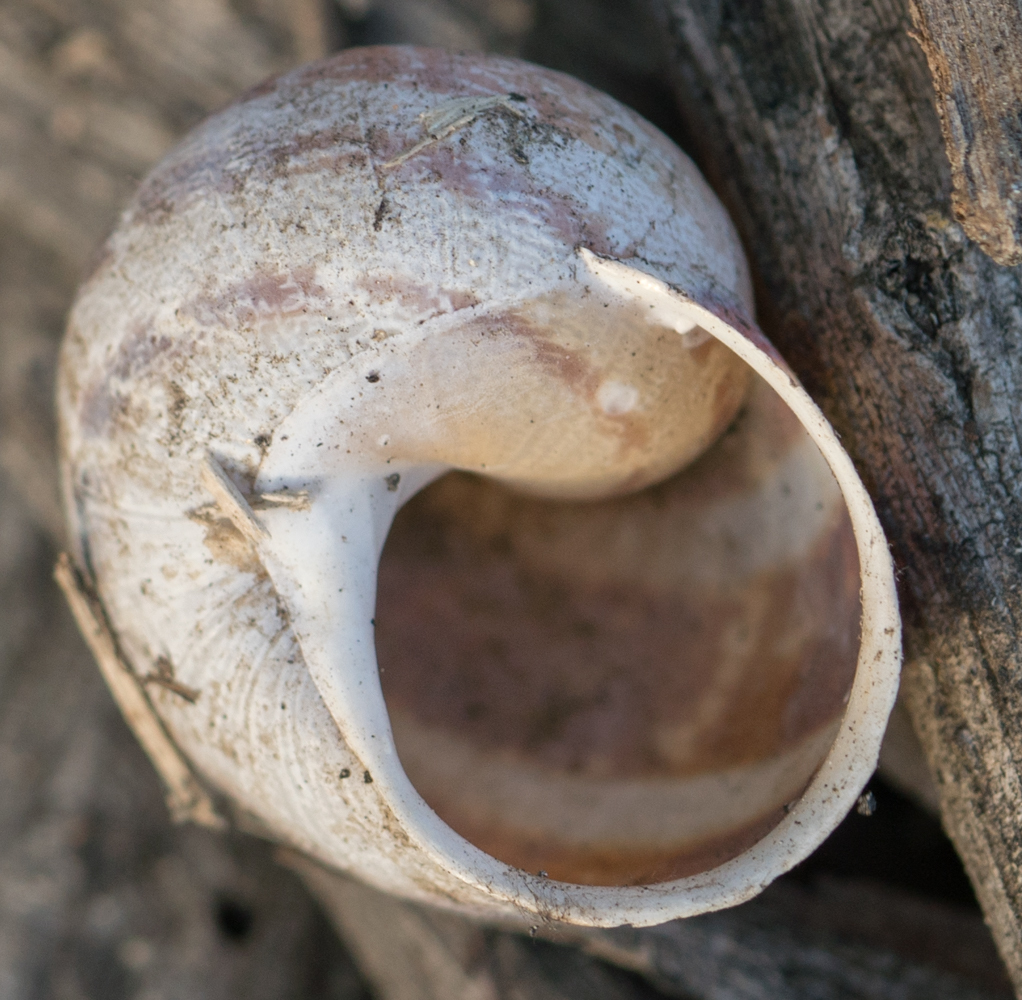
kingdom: Animalia
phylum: Mollusca
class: Gastropoda
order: Stylommatophora
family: Helicidae
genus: Cornu
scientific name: Cornu aspersum
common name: Brown garden snail
